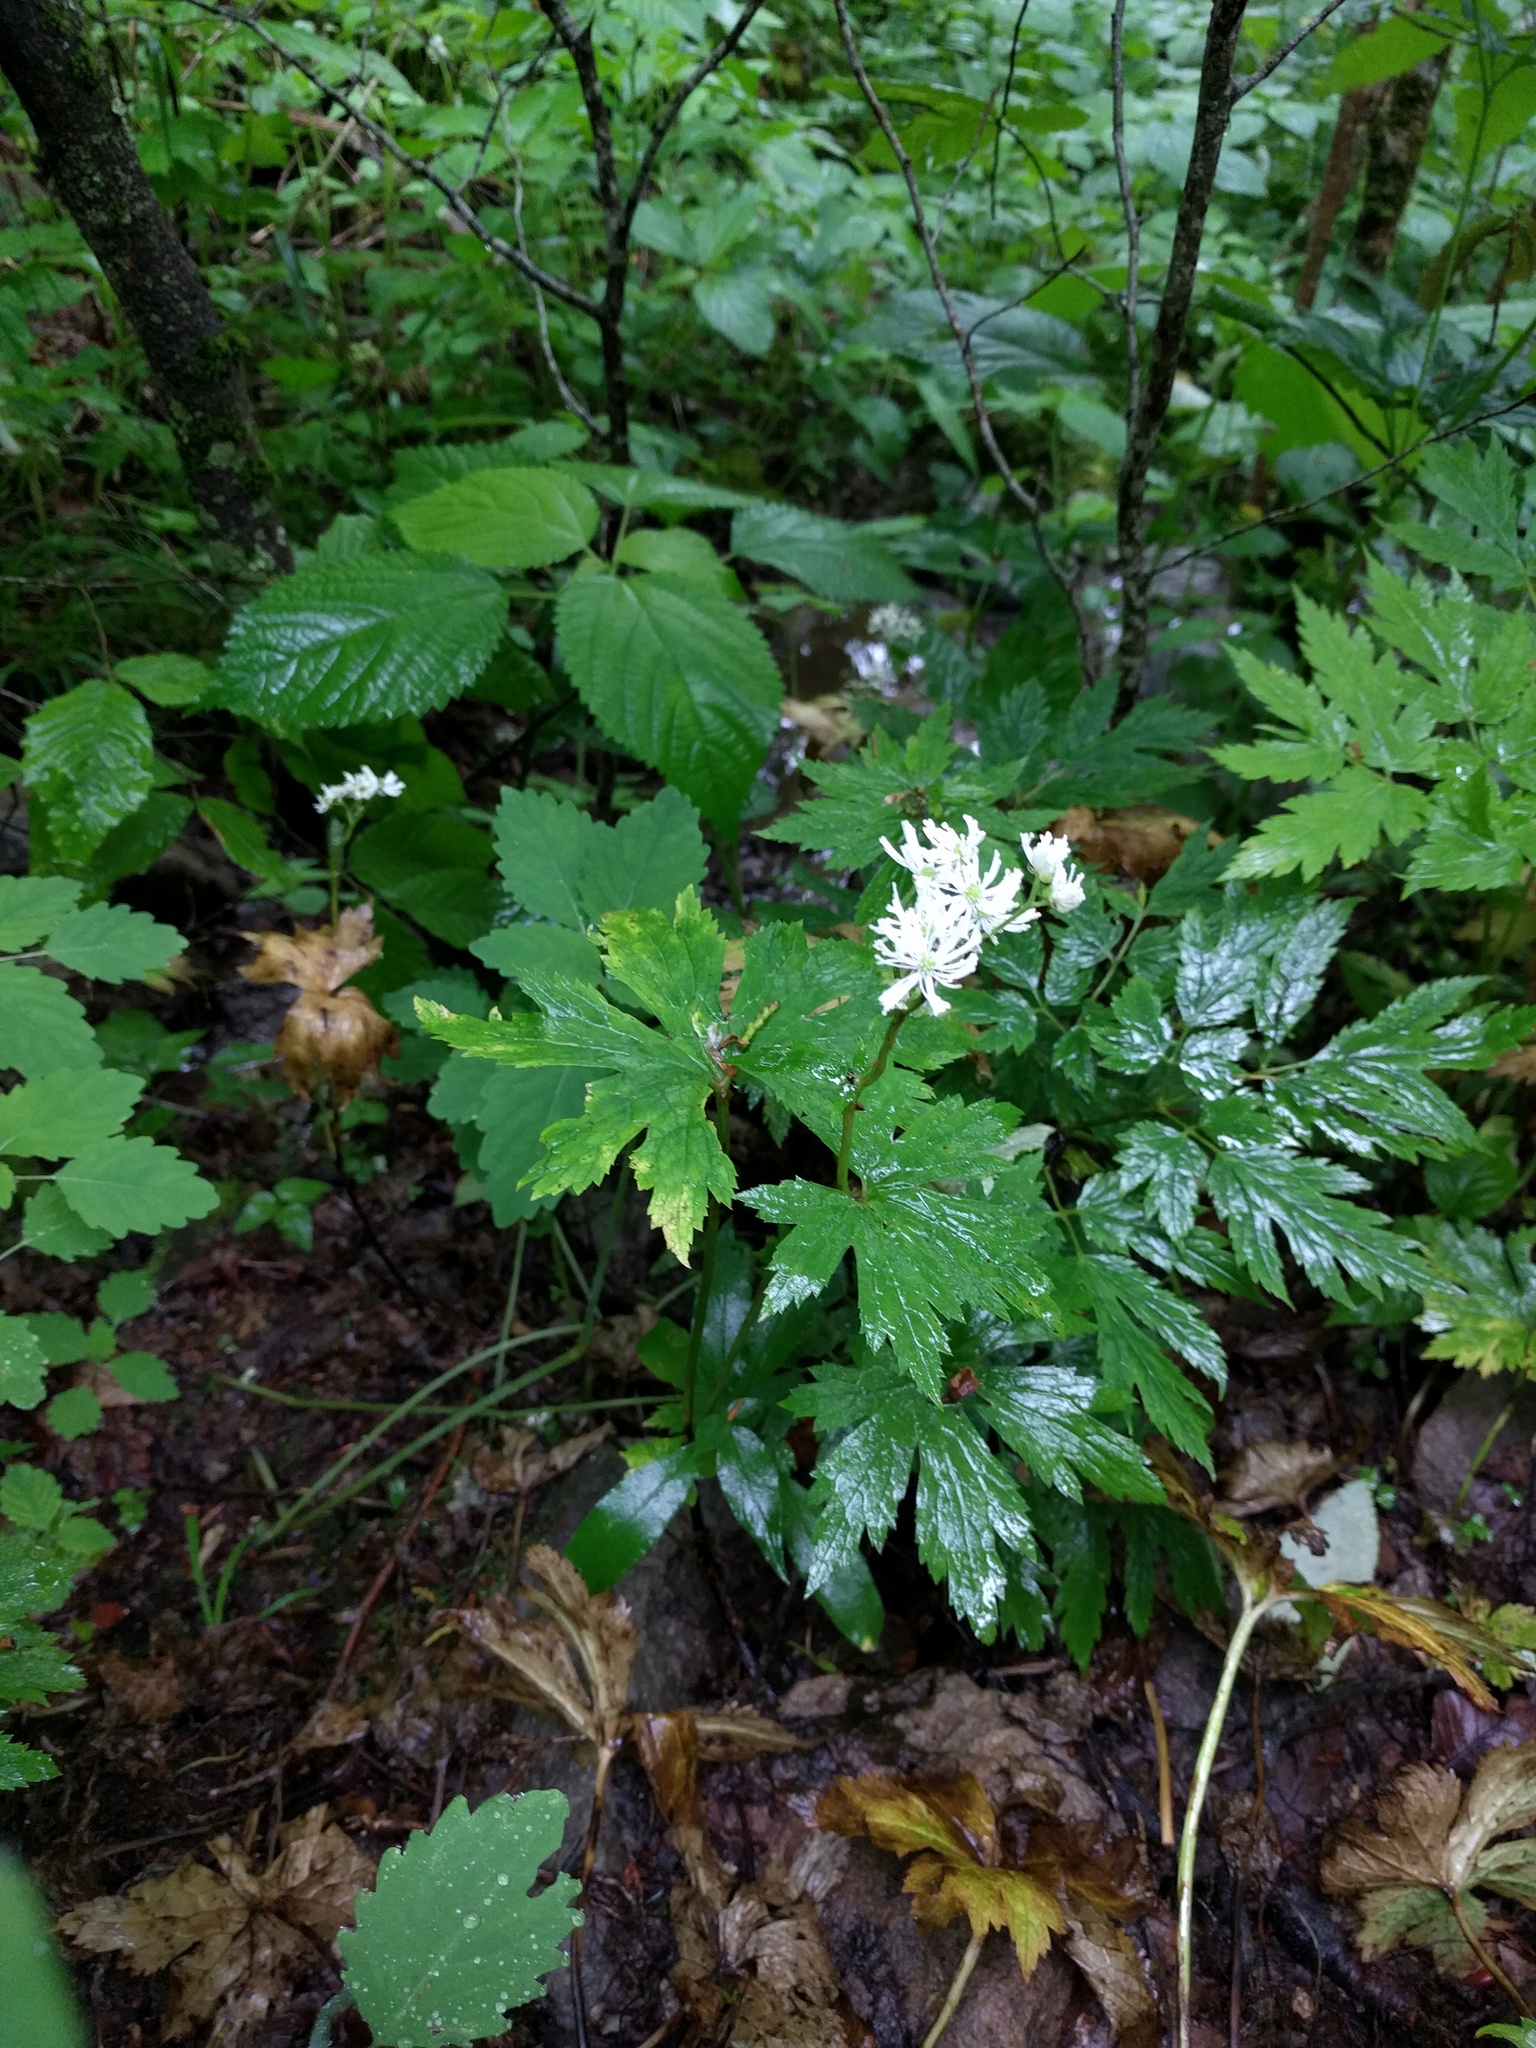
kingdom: Plantae
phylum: Tracheophyta
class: Magnoliopsida
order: Ranunculales
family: Ranunculaceae
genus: Trautvetteria
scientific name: Trautvetteria carolinensis
